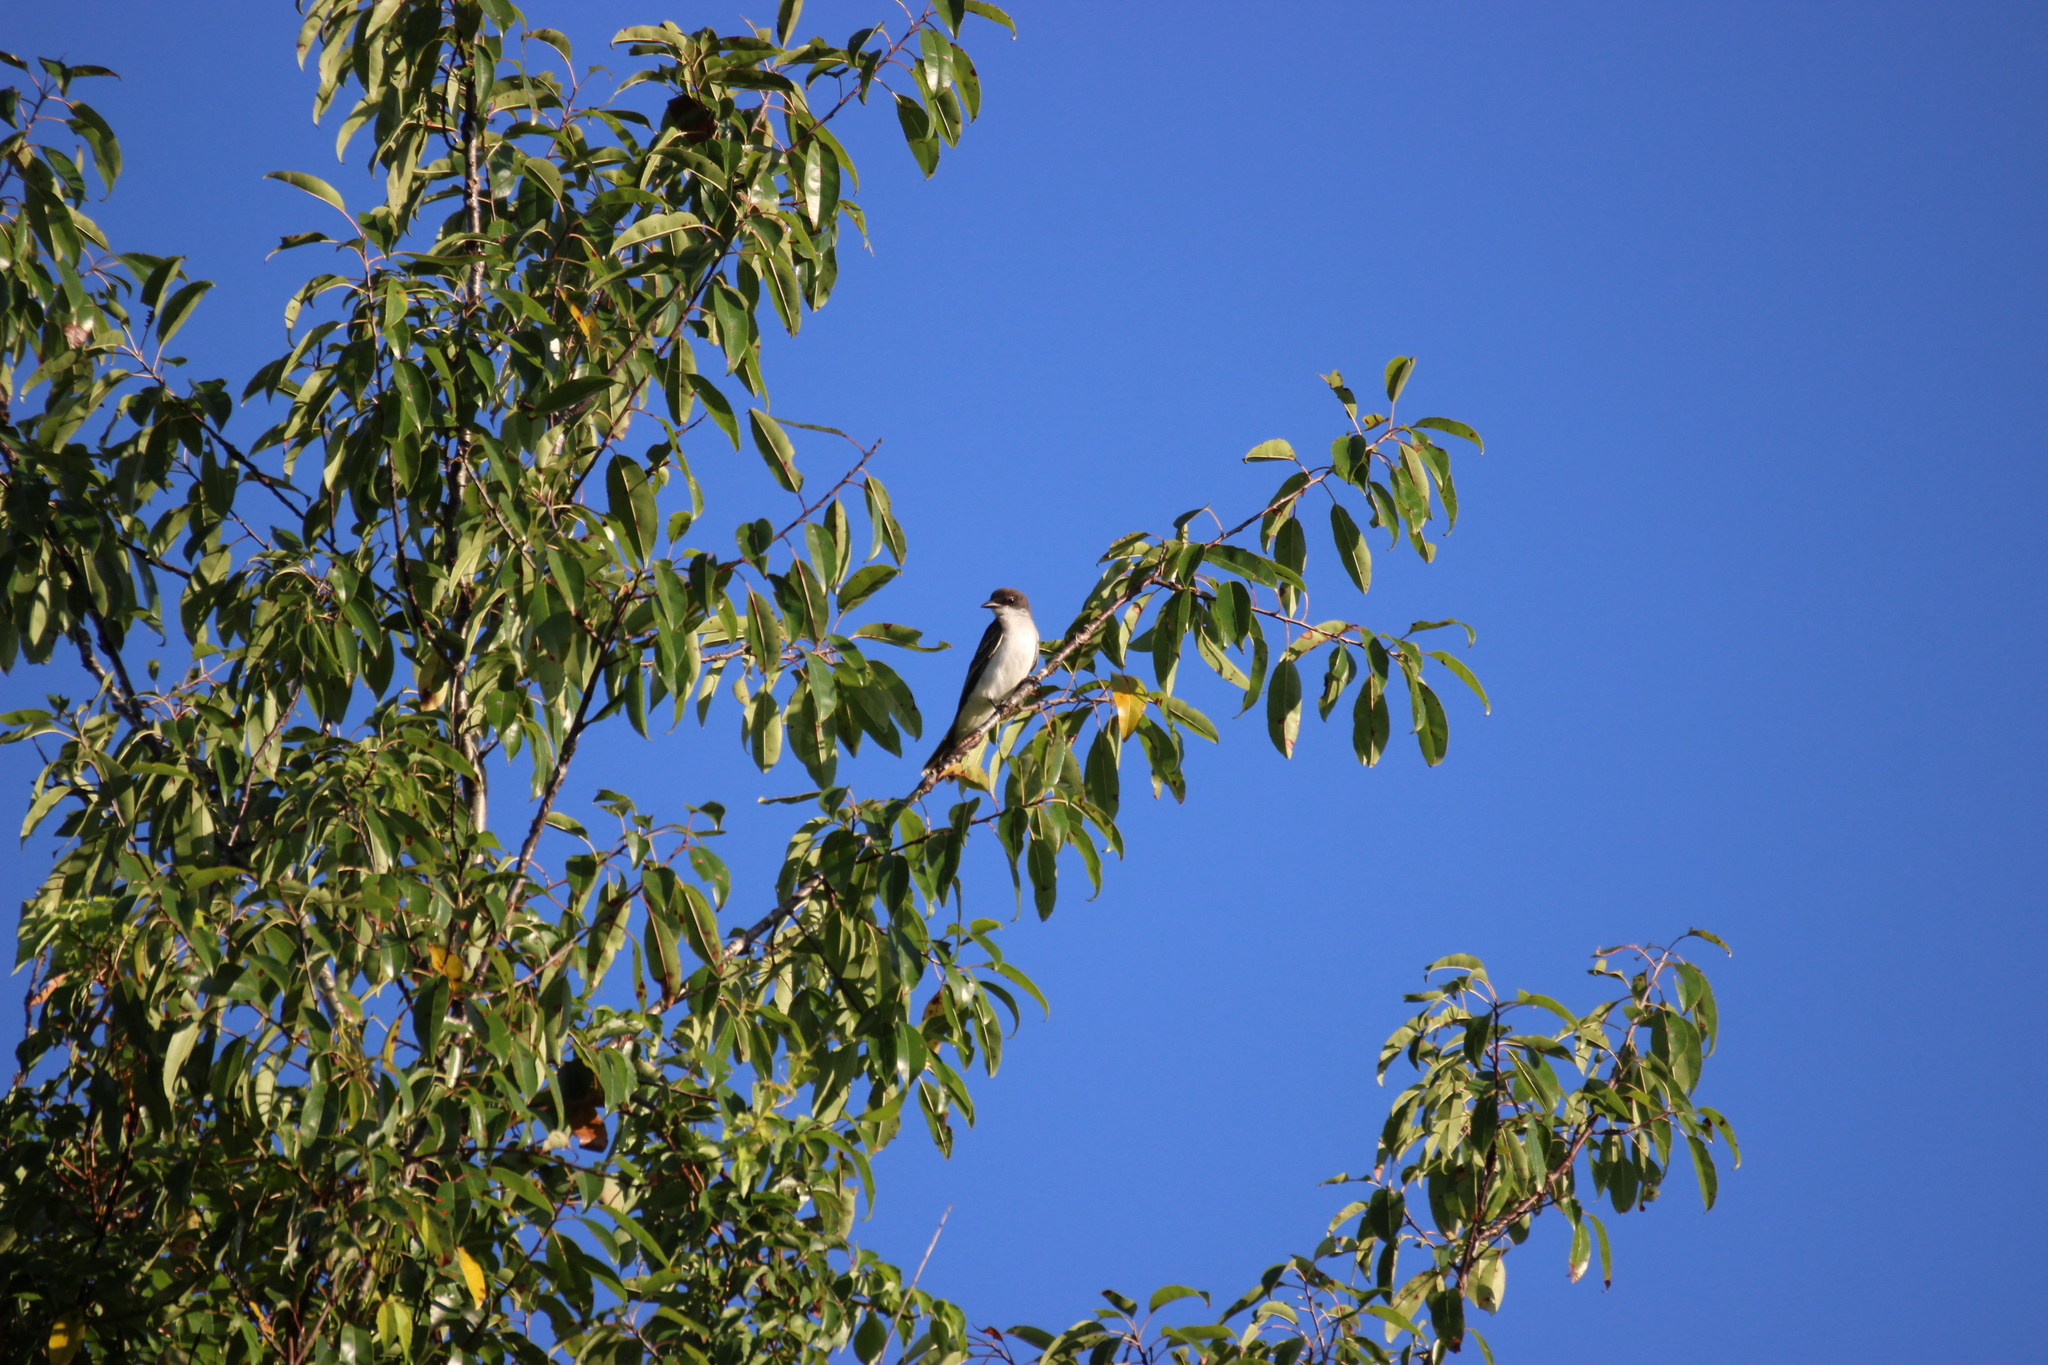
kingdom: Animalia
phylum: Chordata
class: Aves
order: Passeriformes
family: Tyrannidae
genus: Tyrannus
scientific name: Tyrannus tyrannus
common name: Eastern kingbird
